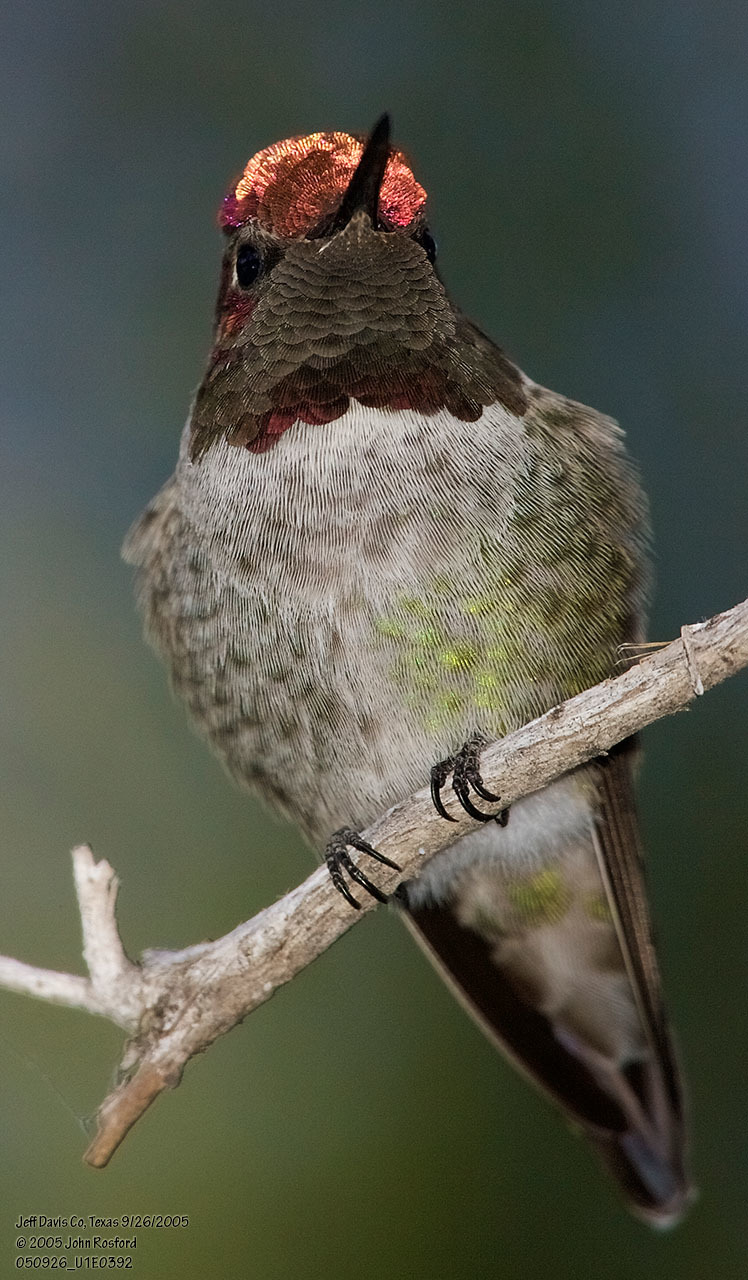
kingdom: Animalia
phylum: Chordata
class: Aves
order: Apodiformes
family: Trochilidae
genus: Calypte
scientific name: Calypte anna
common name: Anna's hummingbird
